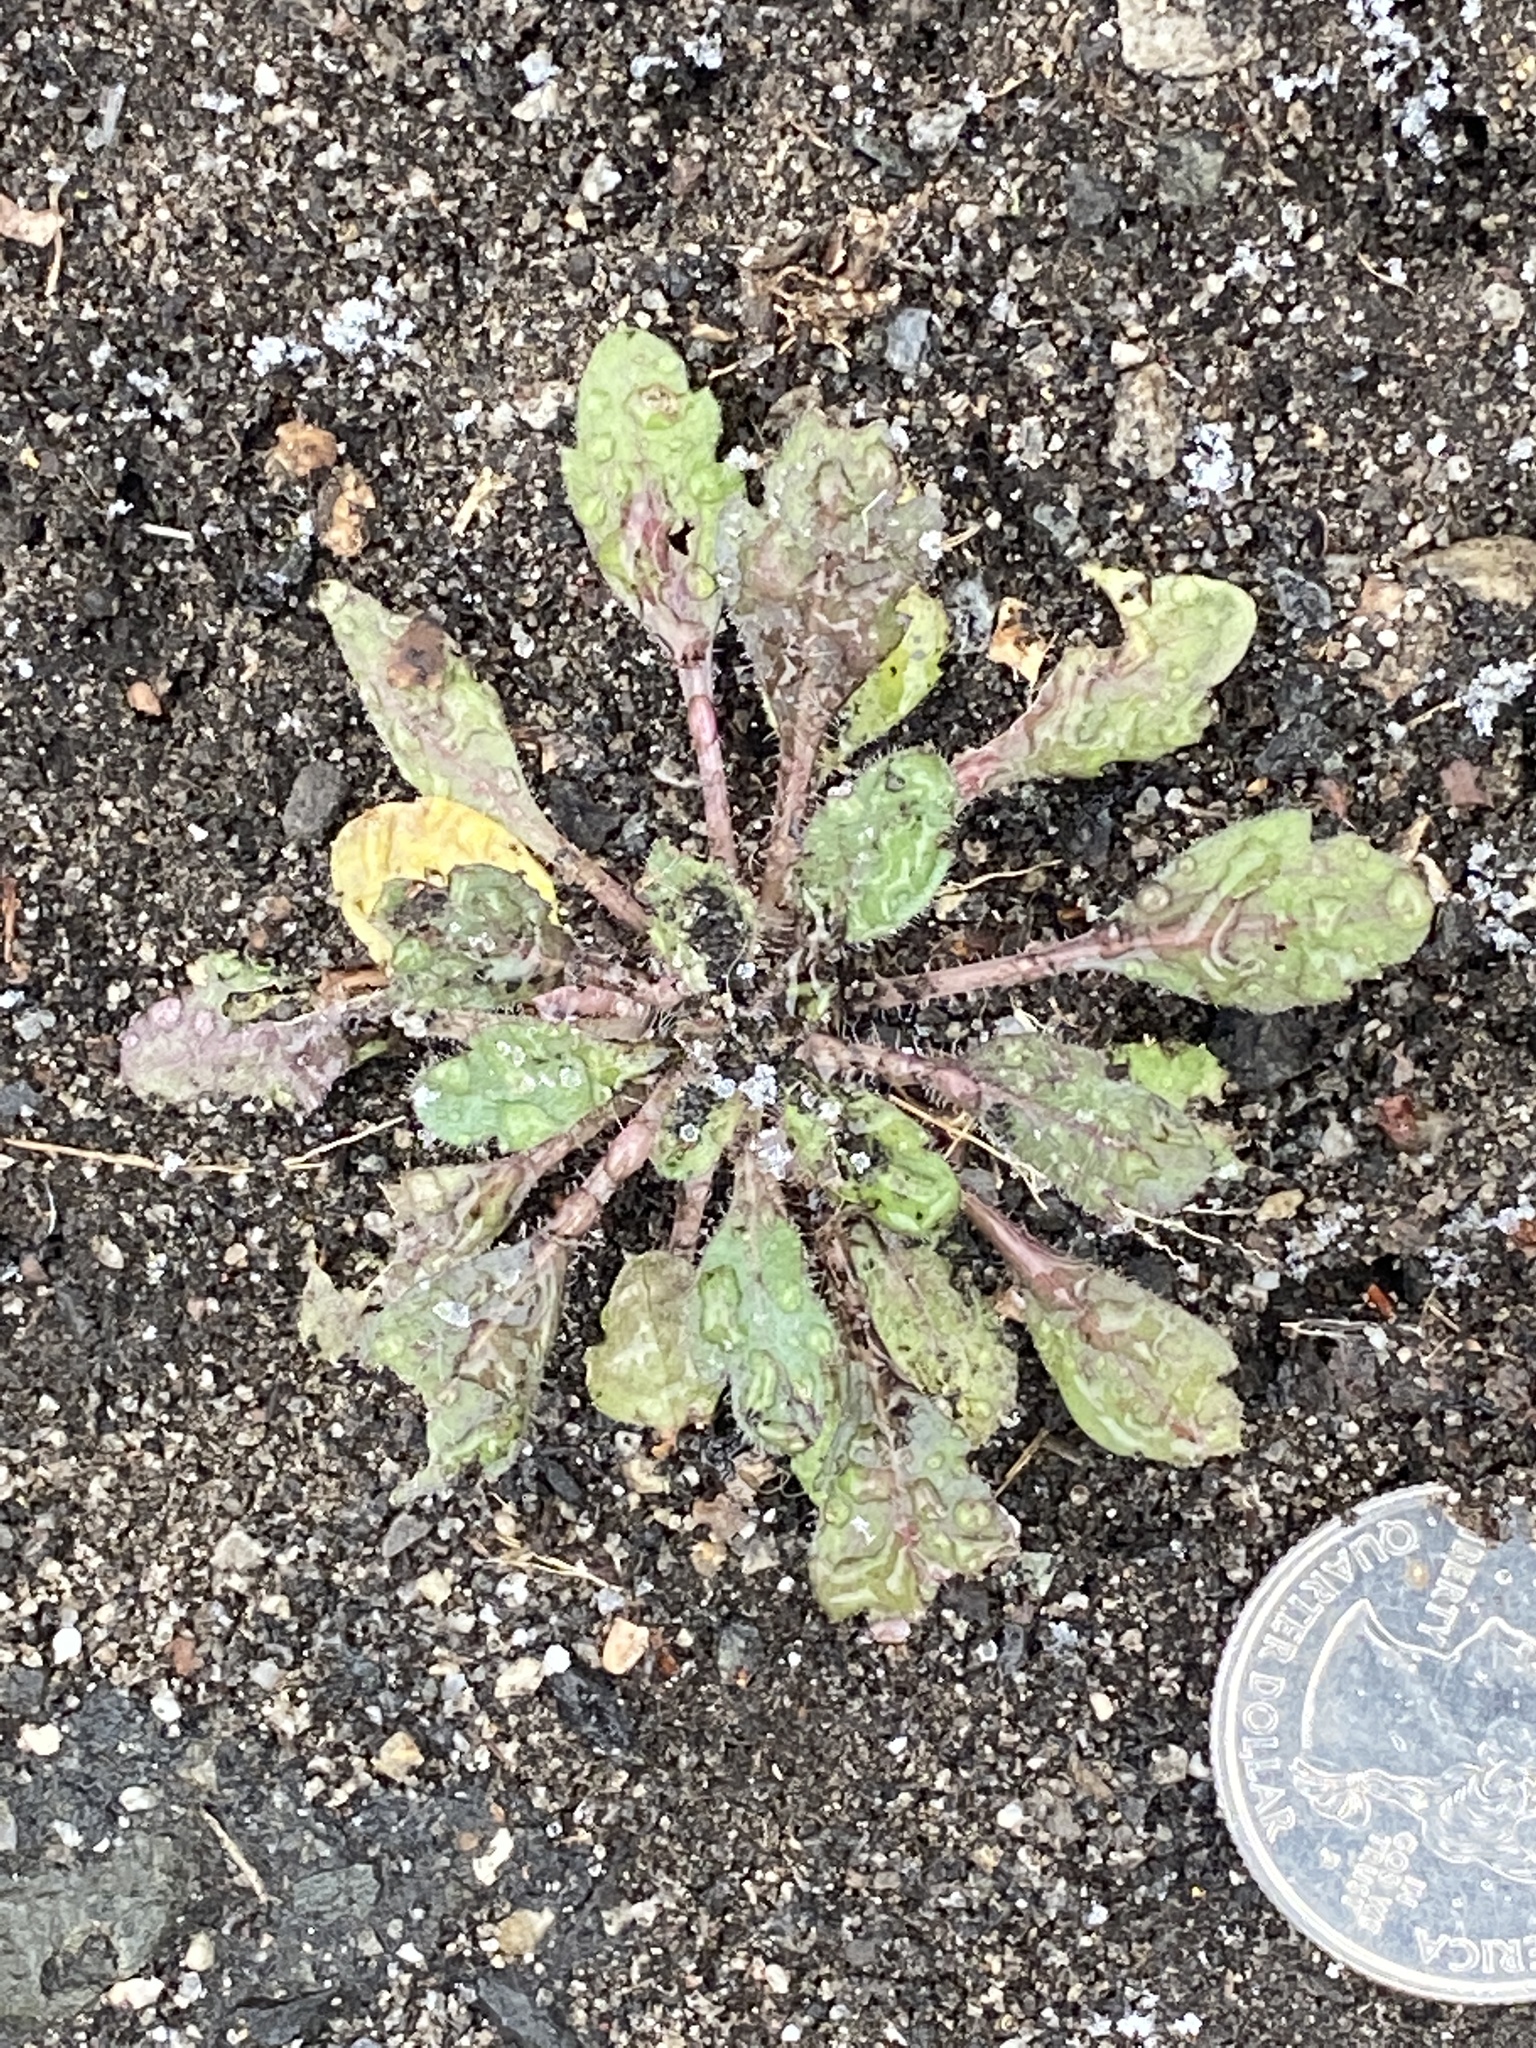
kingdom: Plantae
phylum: Tracheophyta
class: Magnoliopsida
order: Asterales
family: Asteraceae
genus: Erigeron
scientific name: Erigeron canadensis
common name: Canadian fleabane
